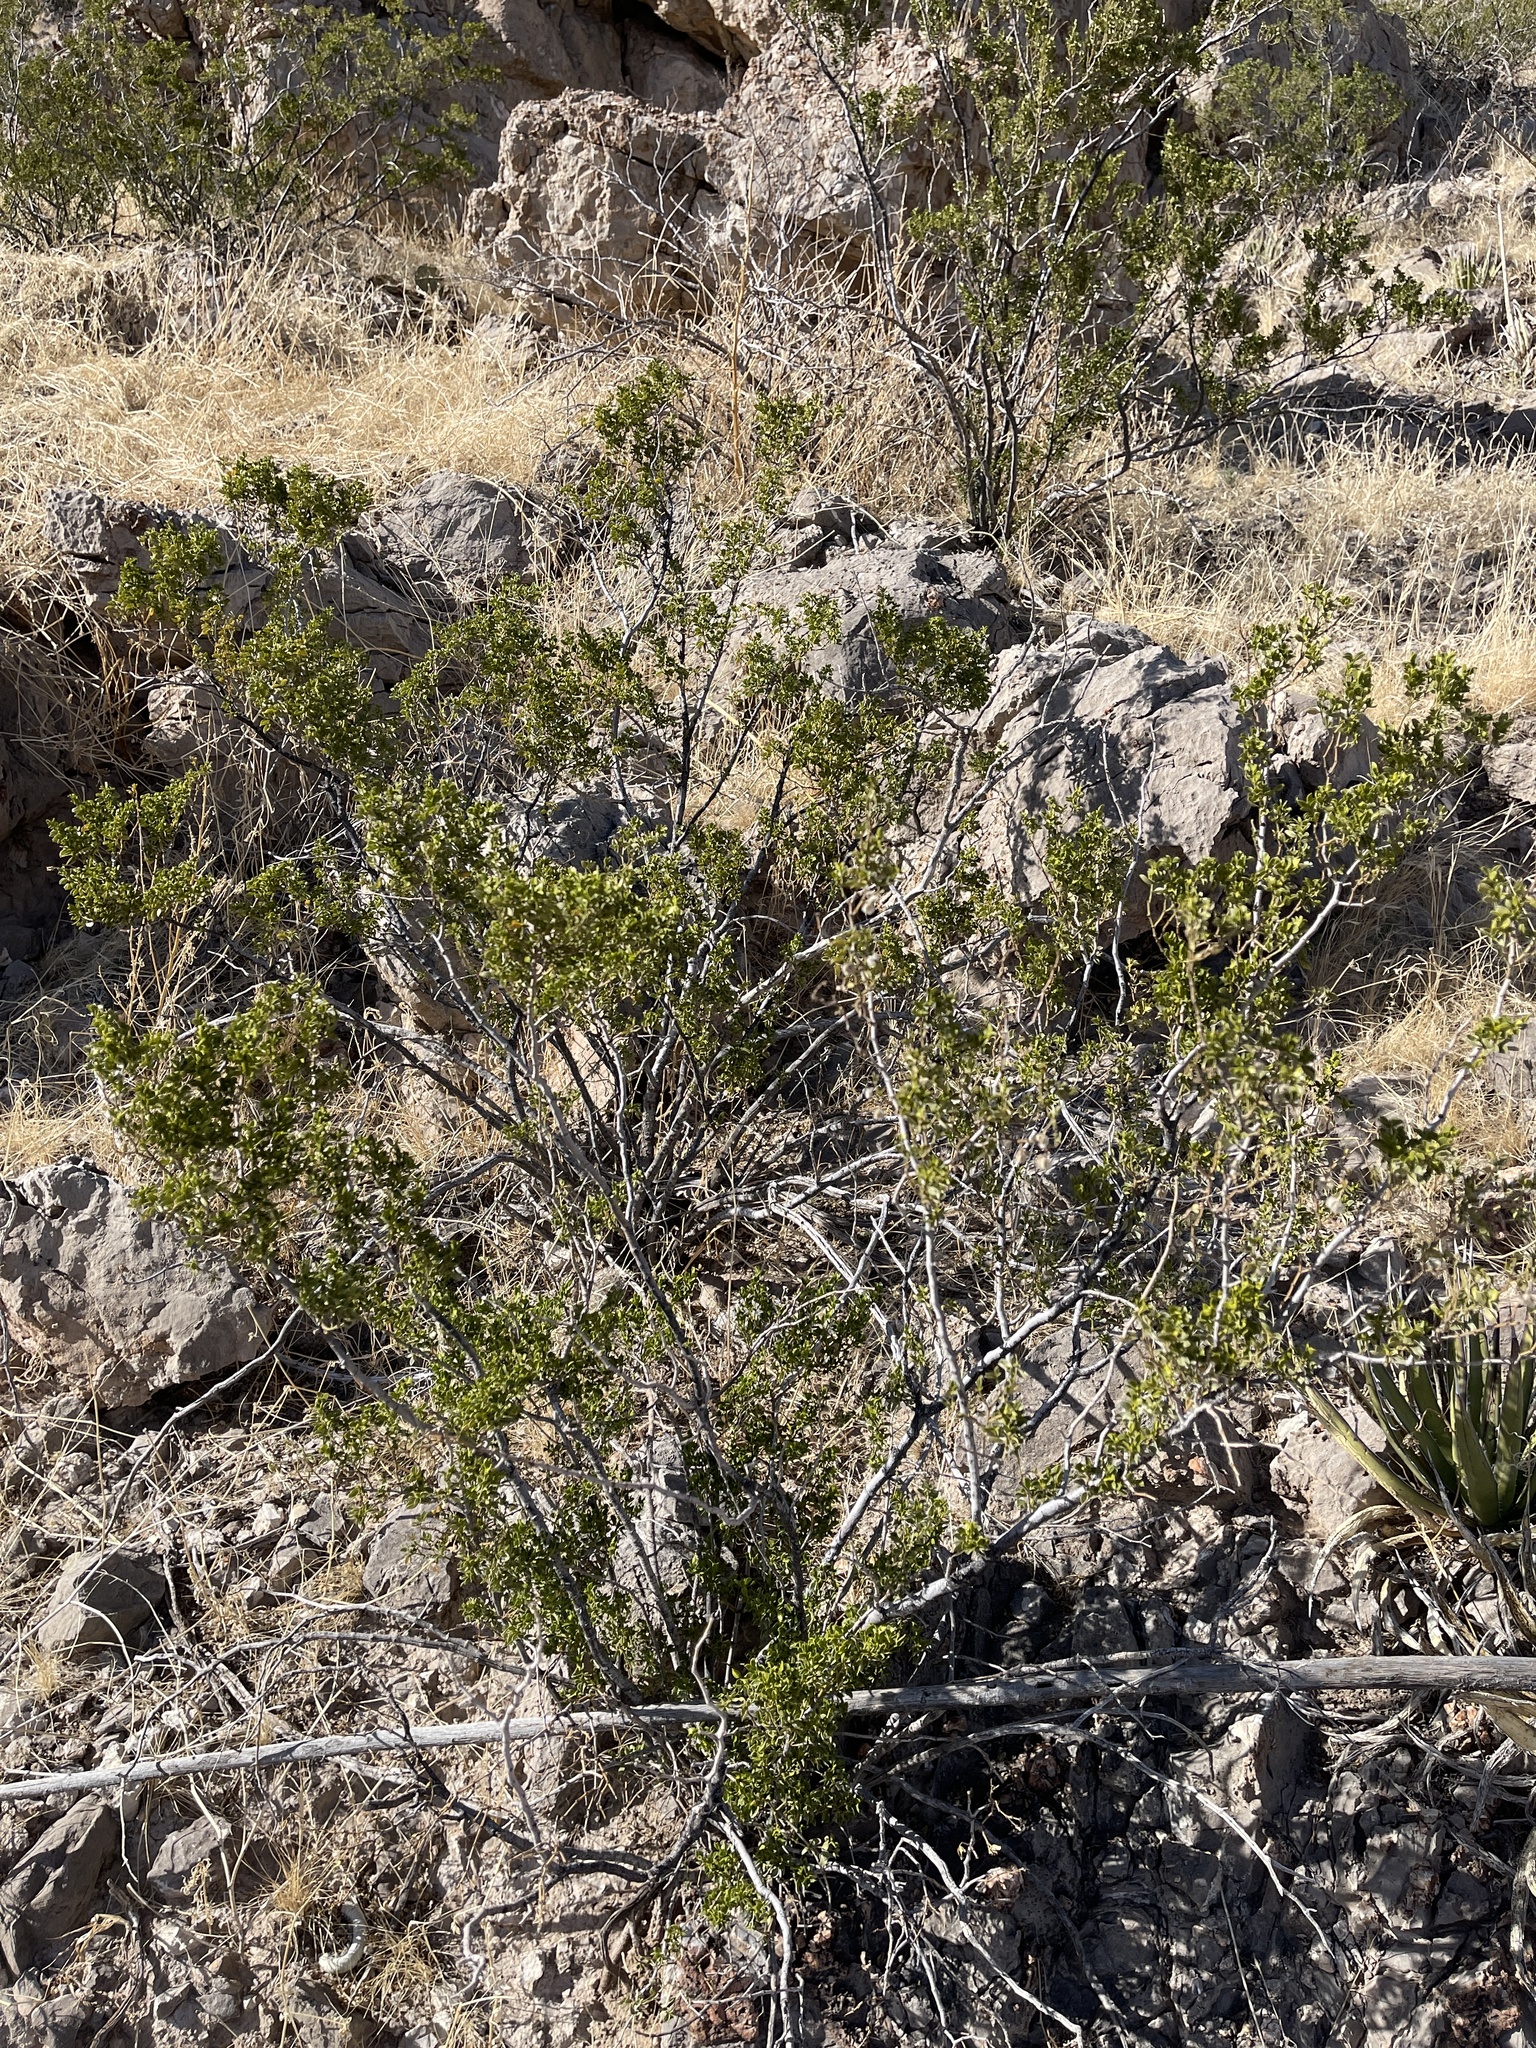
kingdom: Plantae
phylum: Tracheophyta
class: Magnoliopsida
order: Zygophyllales
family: Zygophyllaceae
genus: Larrea
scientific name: Larrea tridentata
